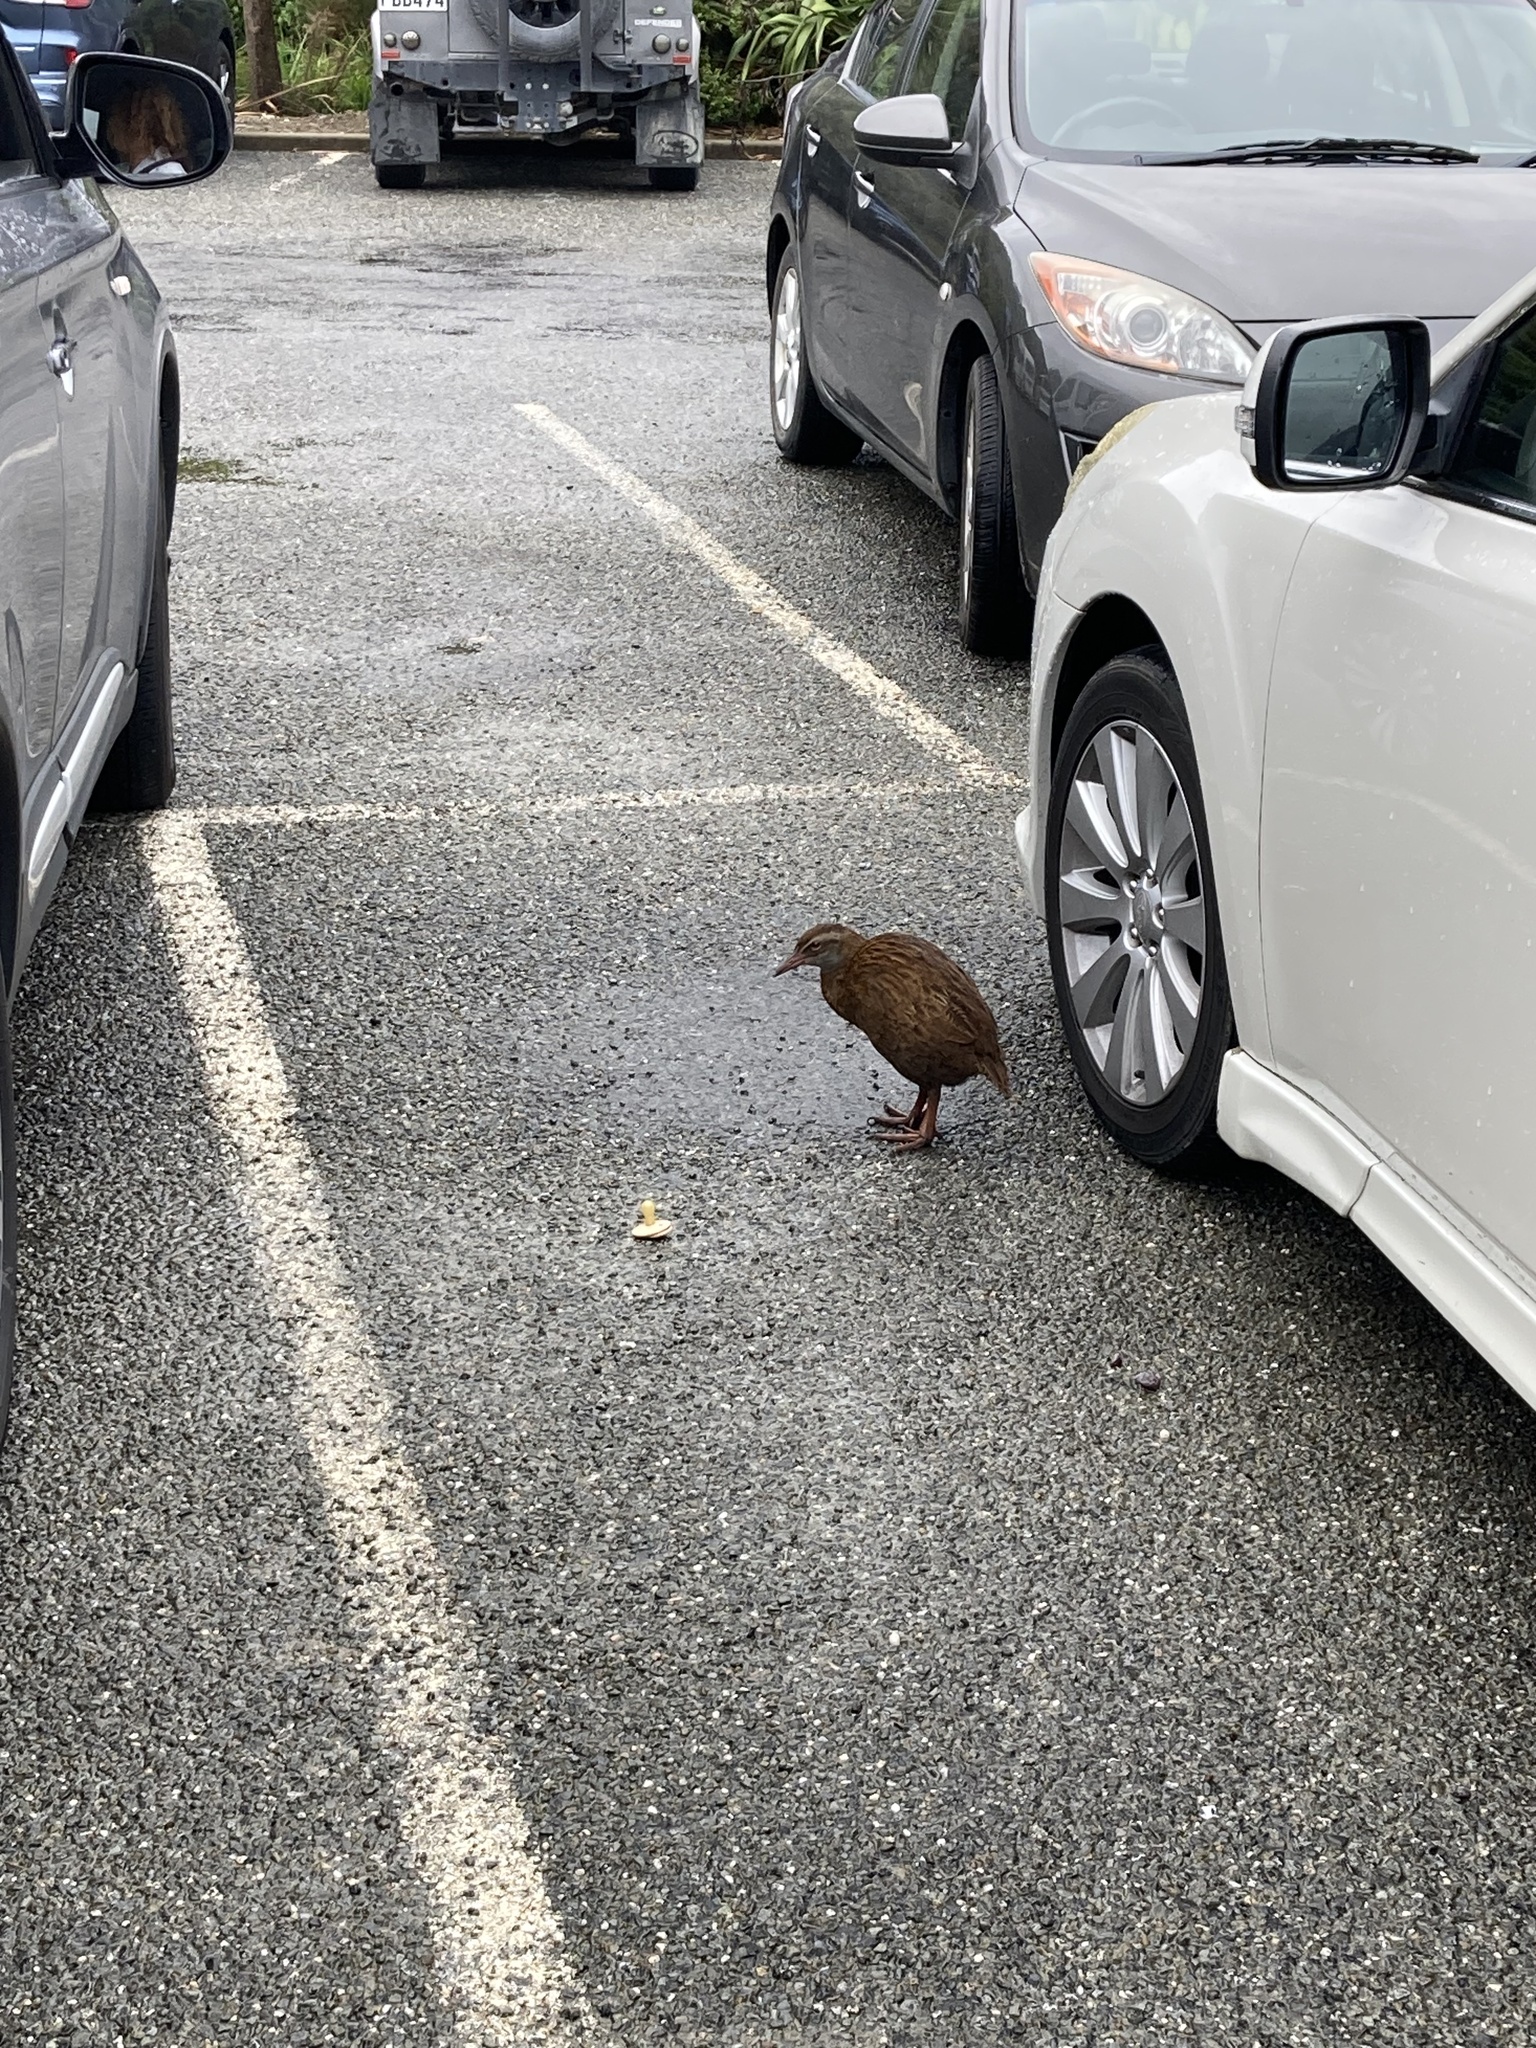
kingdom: Animalia
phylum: Chordata
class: Aves
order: Gruiformes
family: Rallidae
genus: Gallirallus
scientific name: Gallirallus australis
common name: Weka
